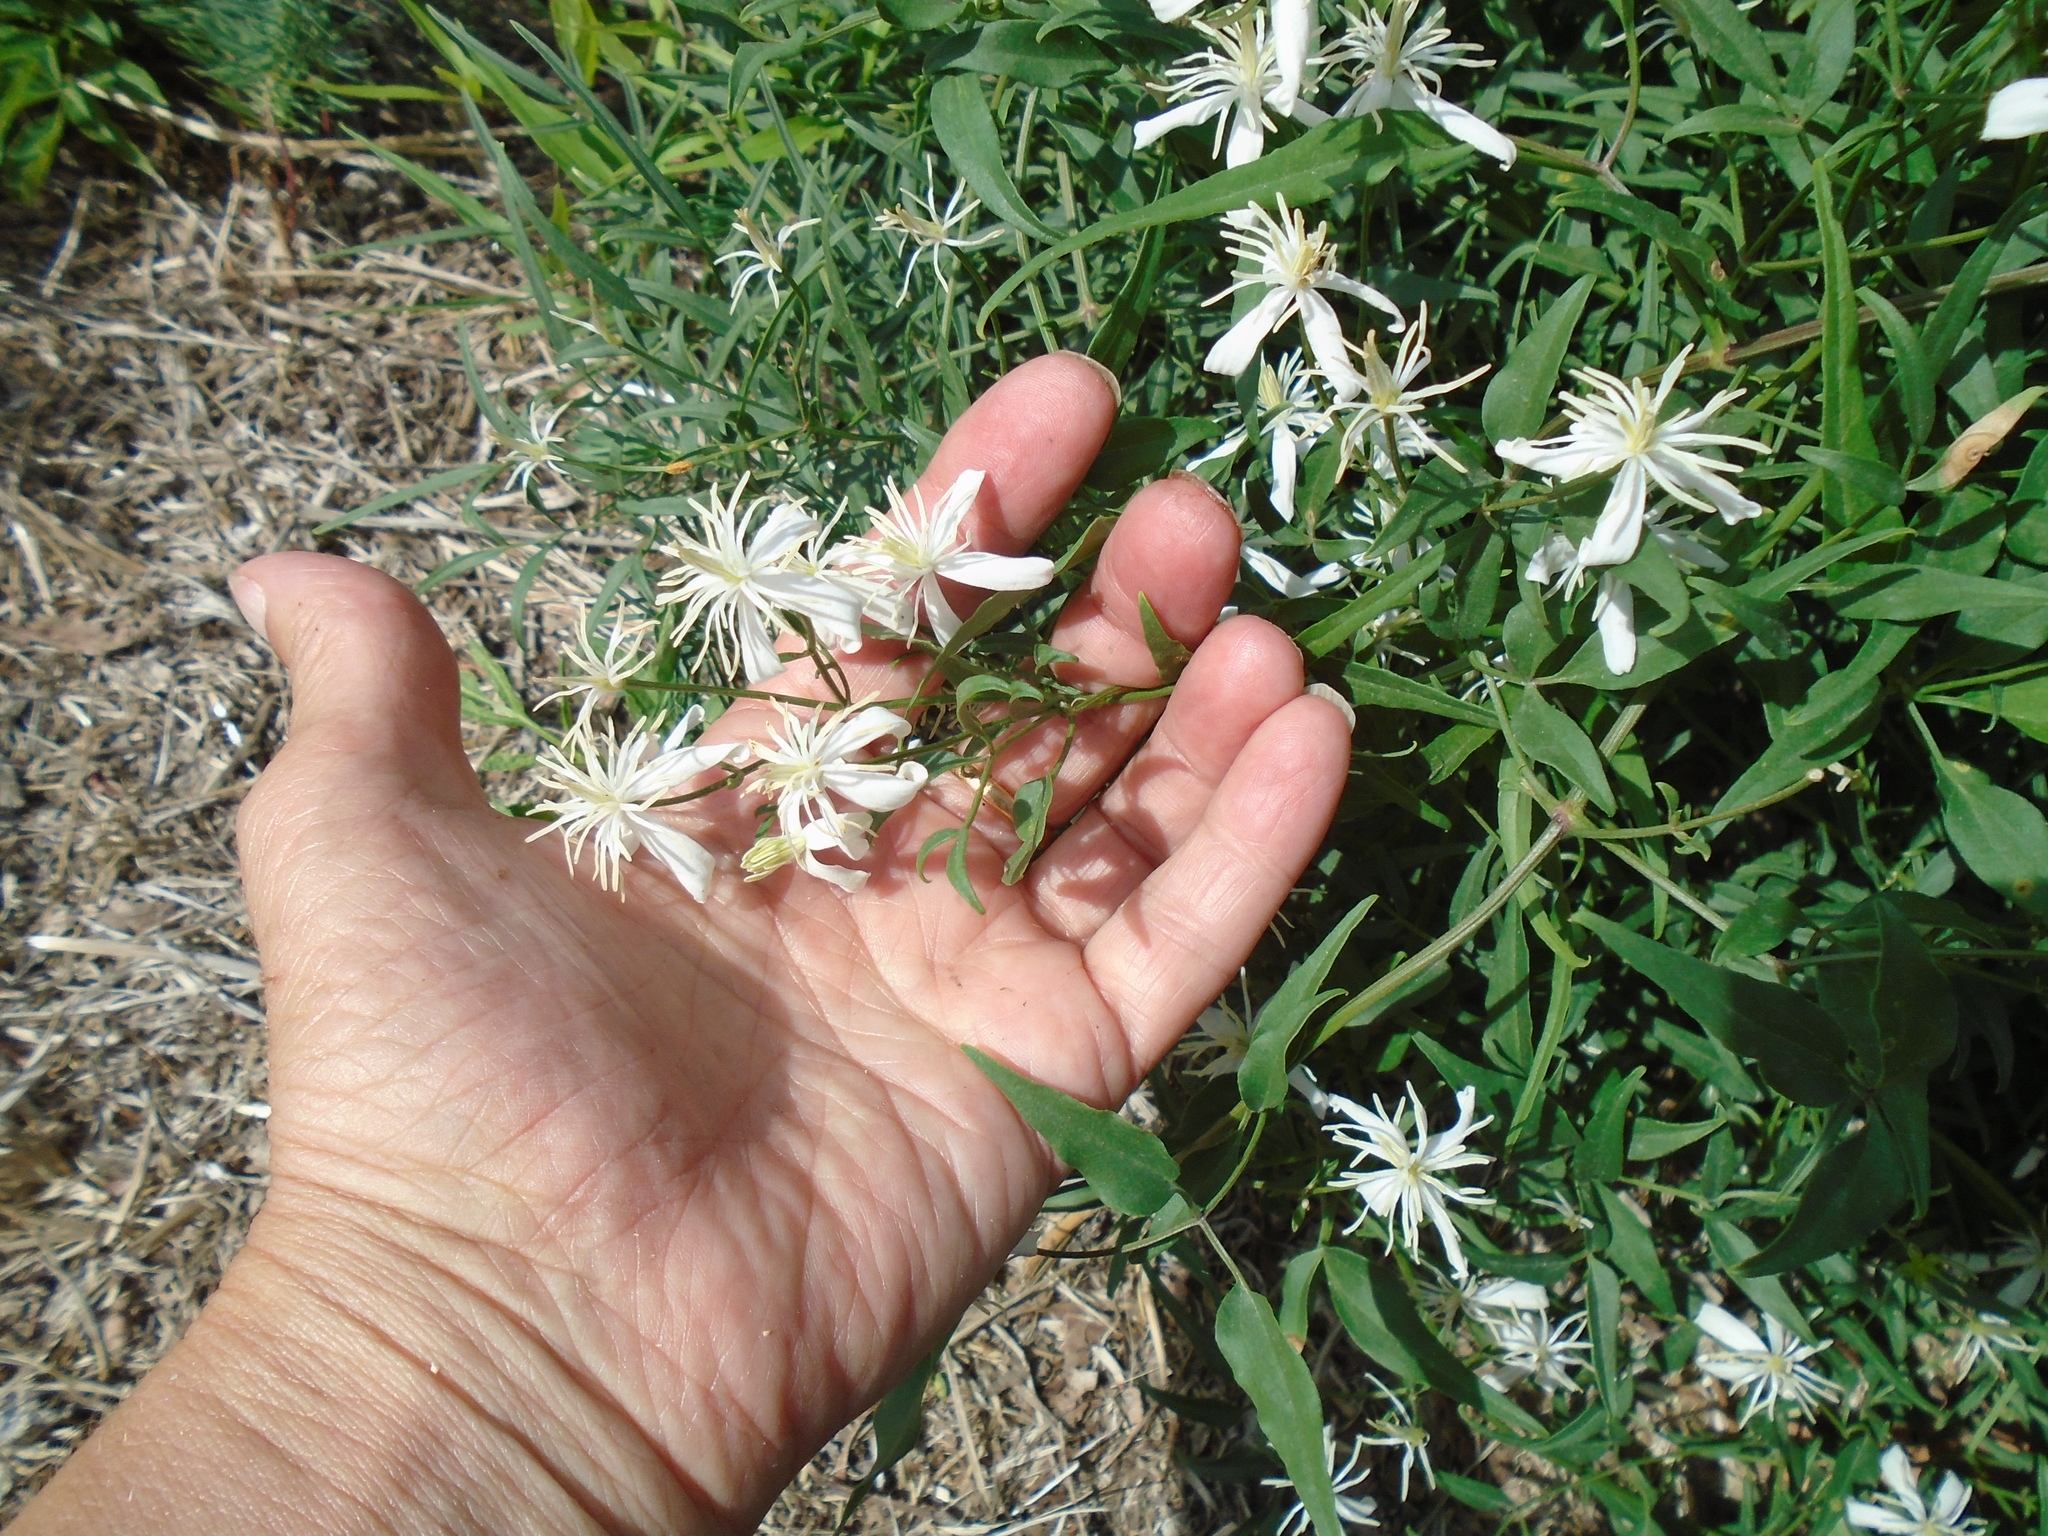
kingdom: Plantae
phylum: Tracheophyta
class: Magnoliopsida
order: Ranunculales
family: Ranunculaceae
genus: Clematis
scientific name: Clematis flammula
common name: Virgin's-bower
